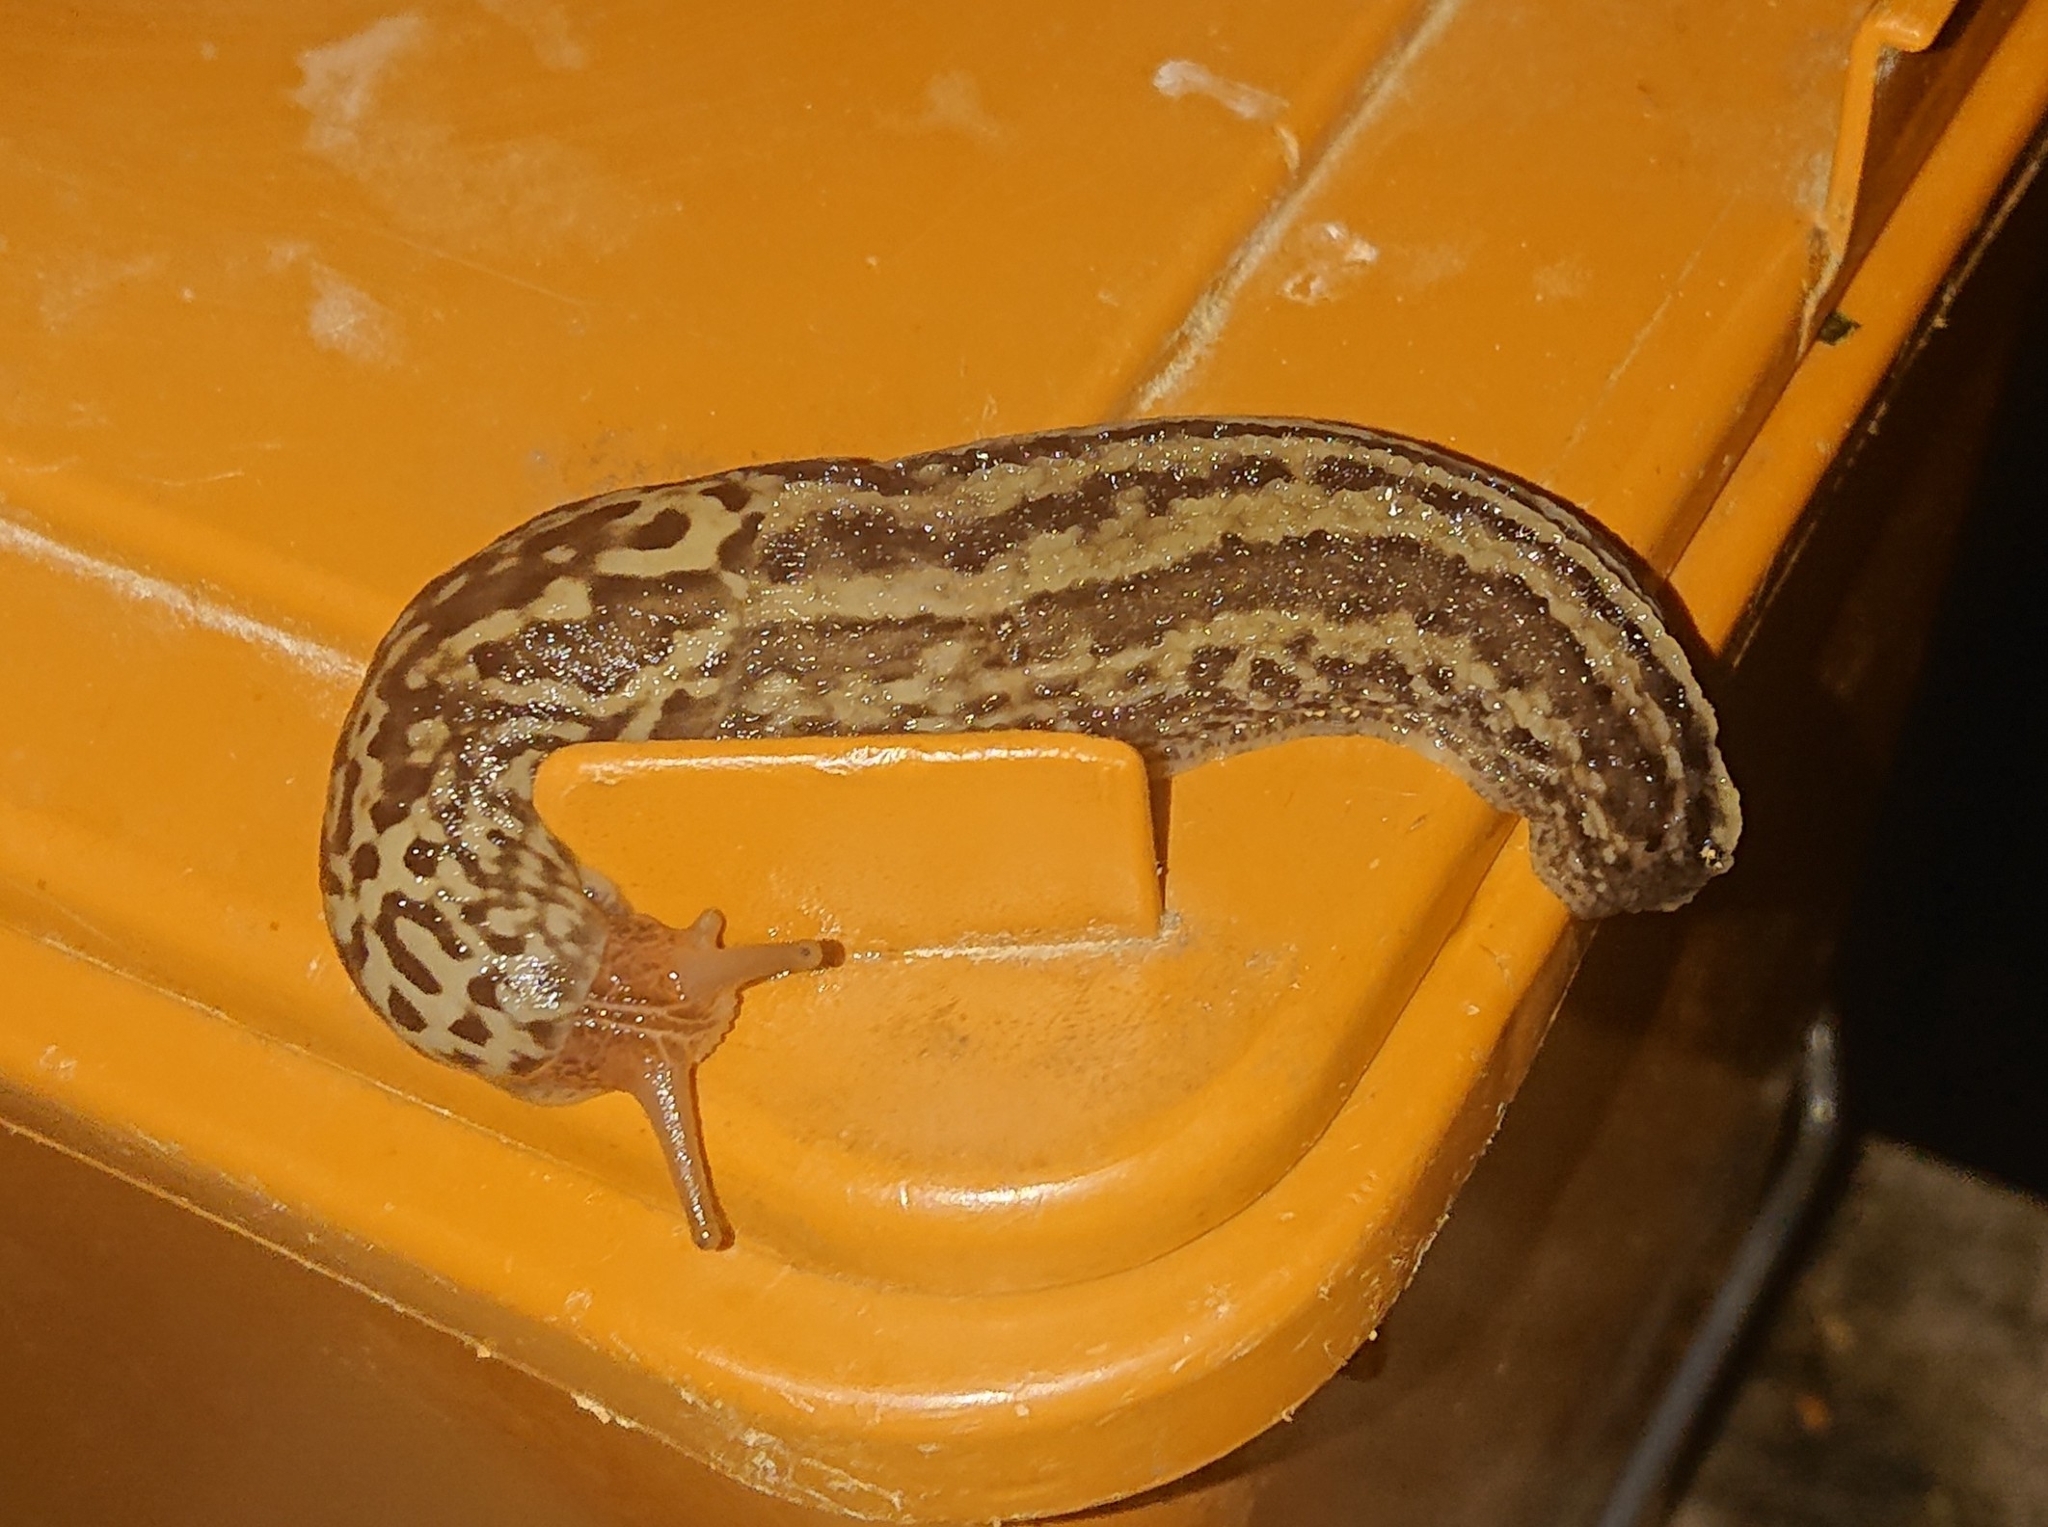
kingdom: Animalia
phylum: Mollusca
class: Gastropoda
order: Stylommatophora
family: Limacidae
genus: Limax
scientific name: Limax maximus
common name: Great grey slug
